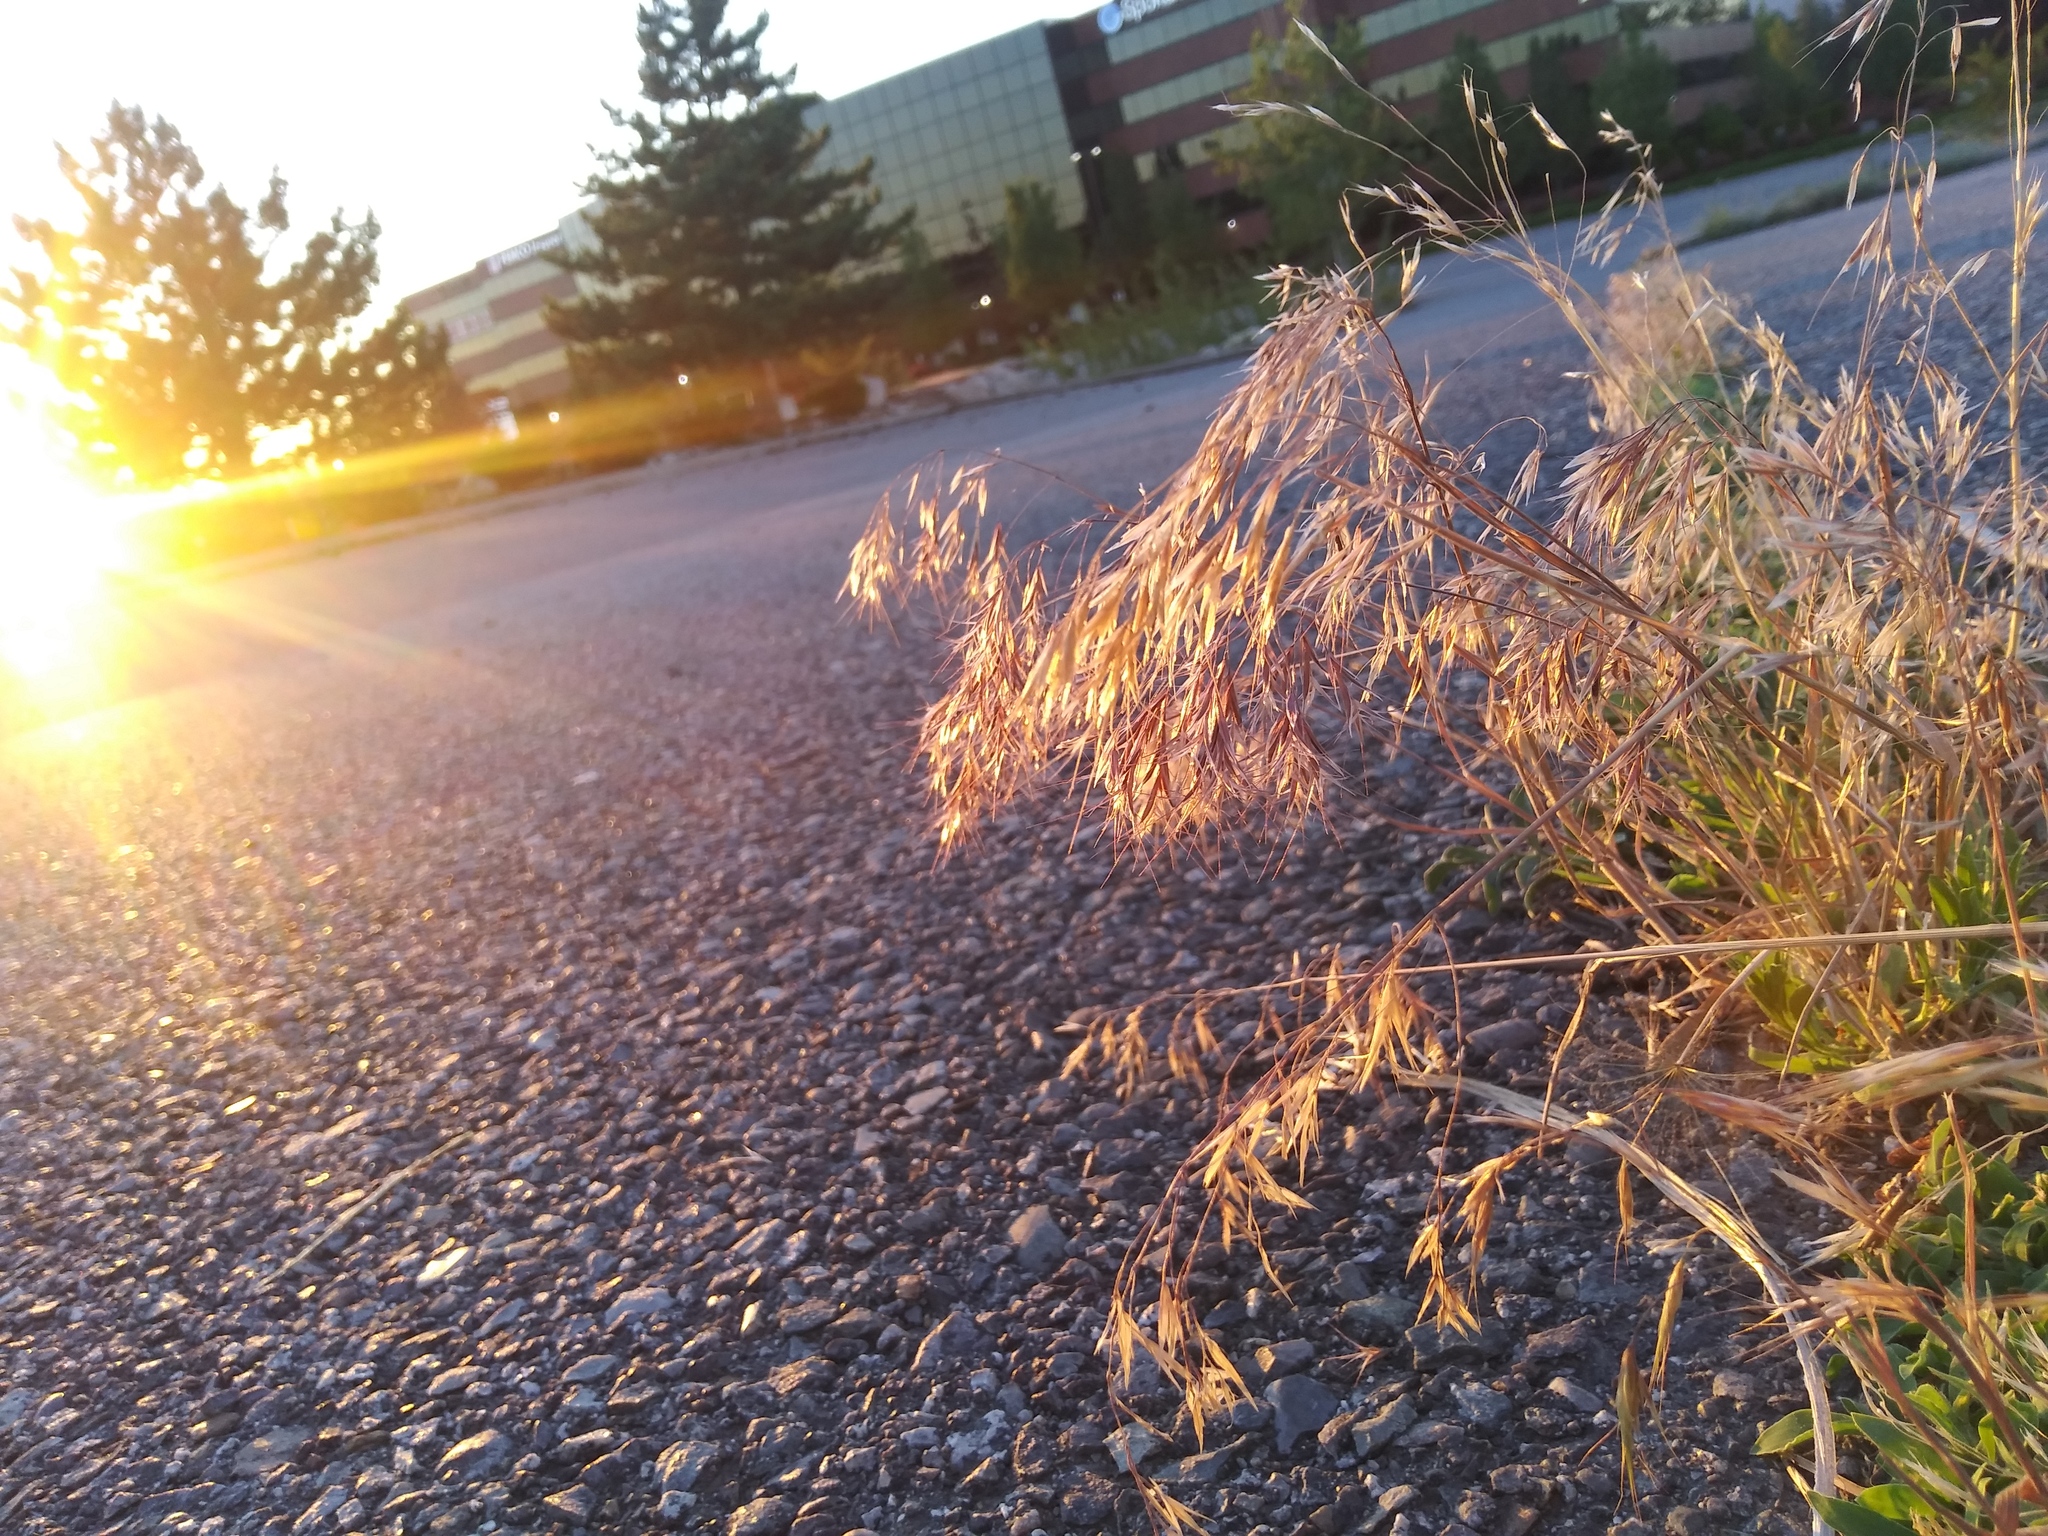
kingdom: Plantae
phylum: Tracheophyta
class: Liliopsida
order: Poales
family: Poaceae
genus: Bromus
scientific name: Bromus tectorum
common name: Cheatgrass
